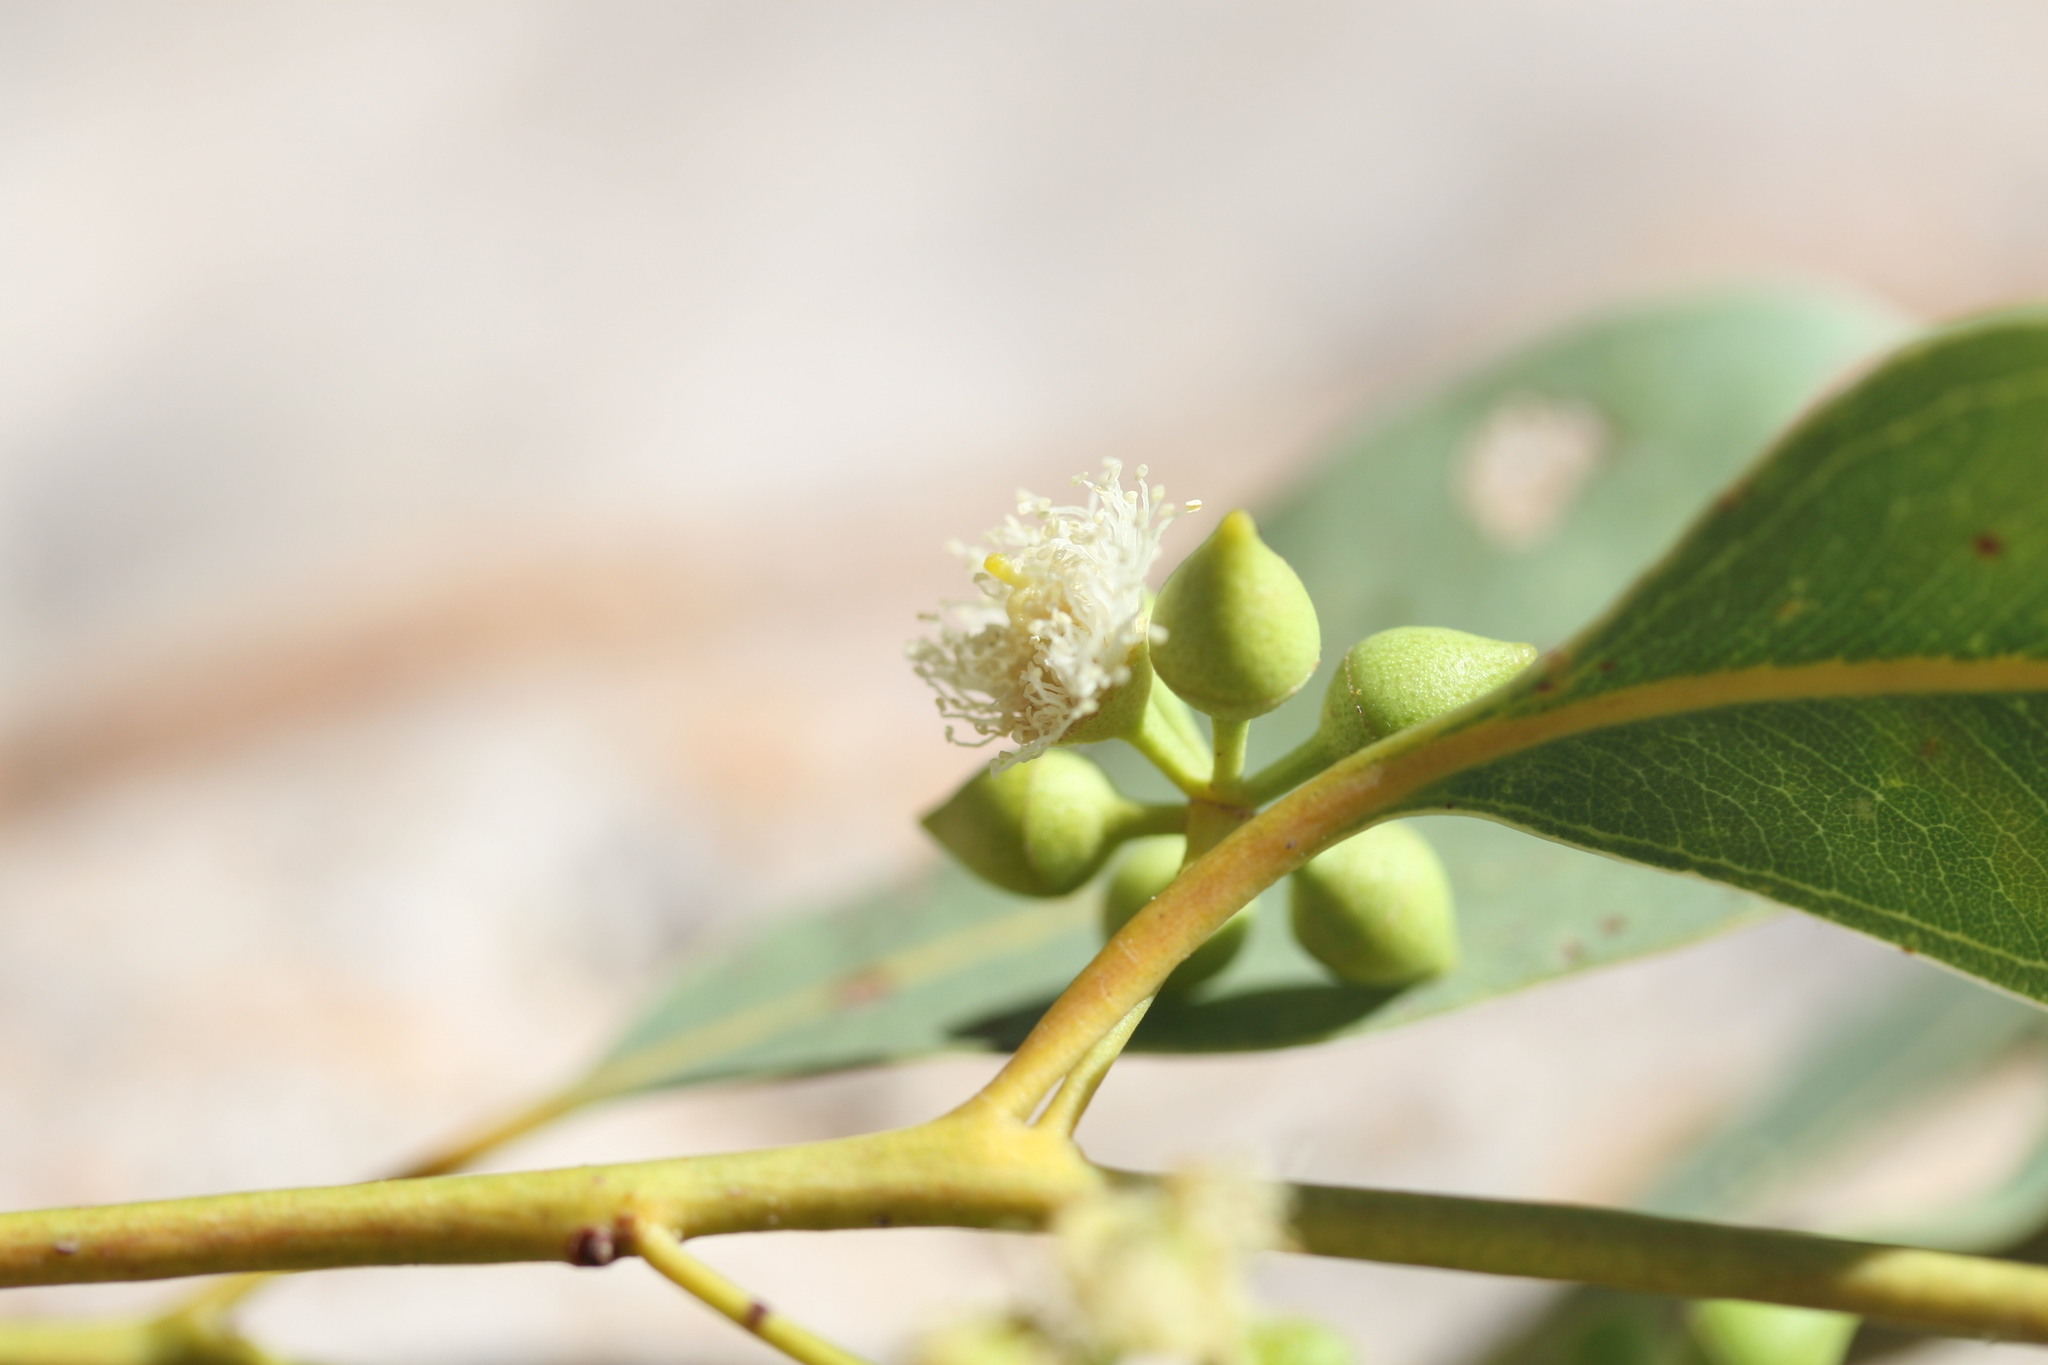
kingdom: Plantae
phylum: Tracheophyta
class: Magnoliopsida
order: Myrtales
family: Myrtaceae
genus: Eucalyptus
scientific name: Eucalyptus camaldulensis
